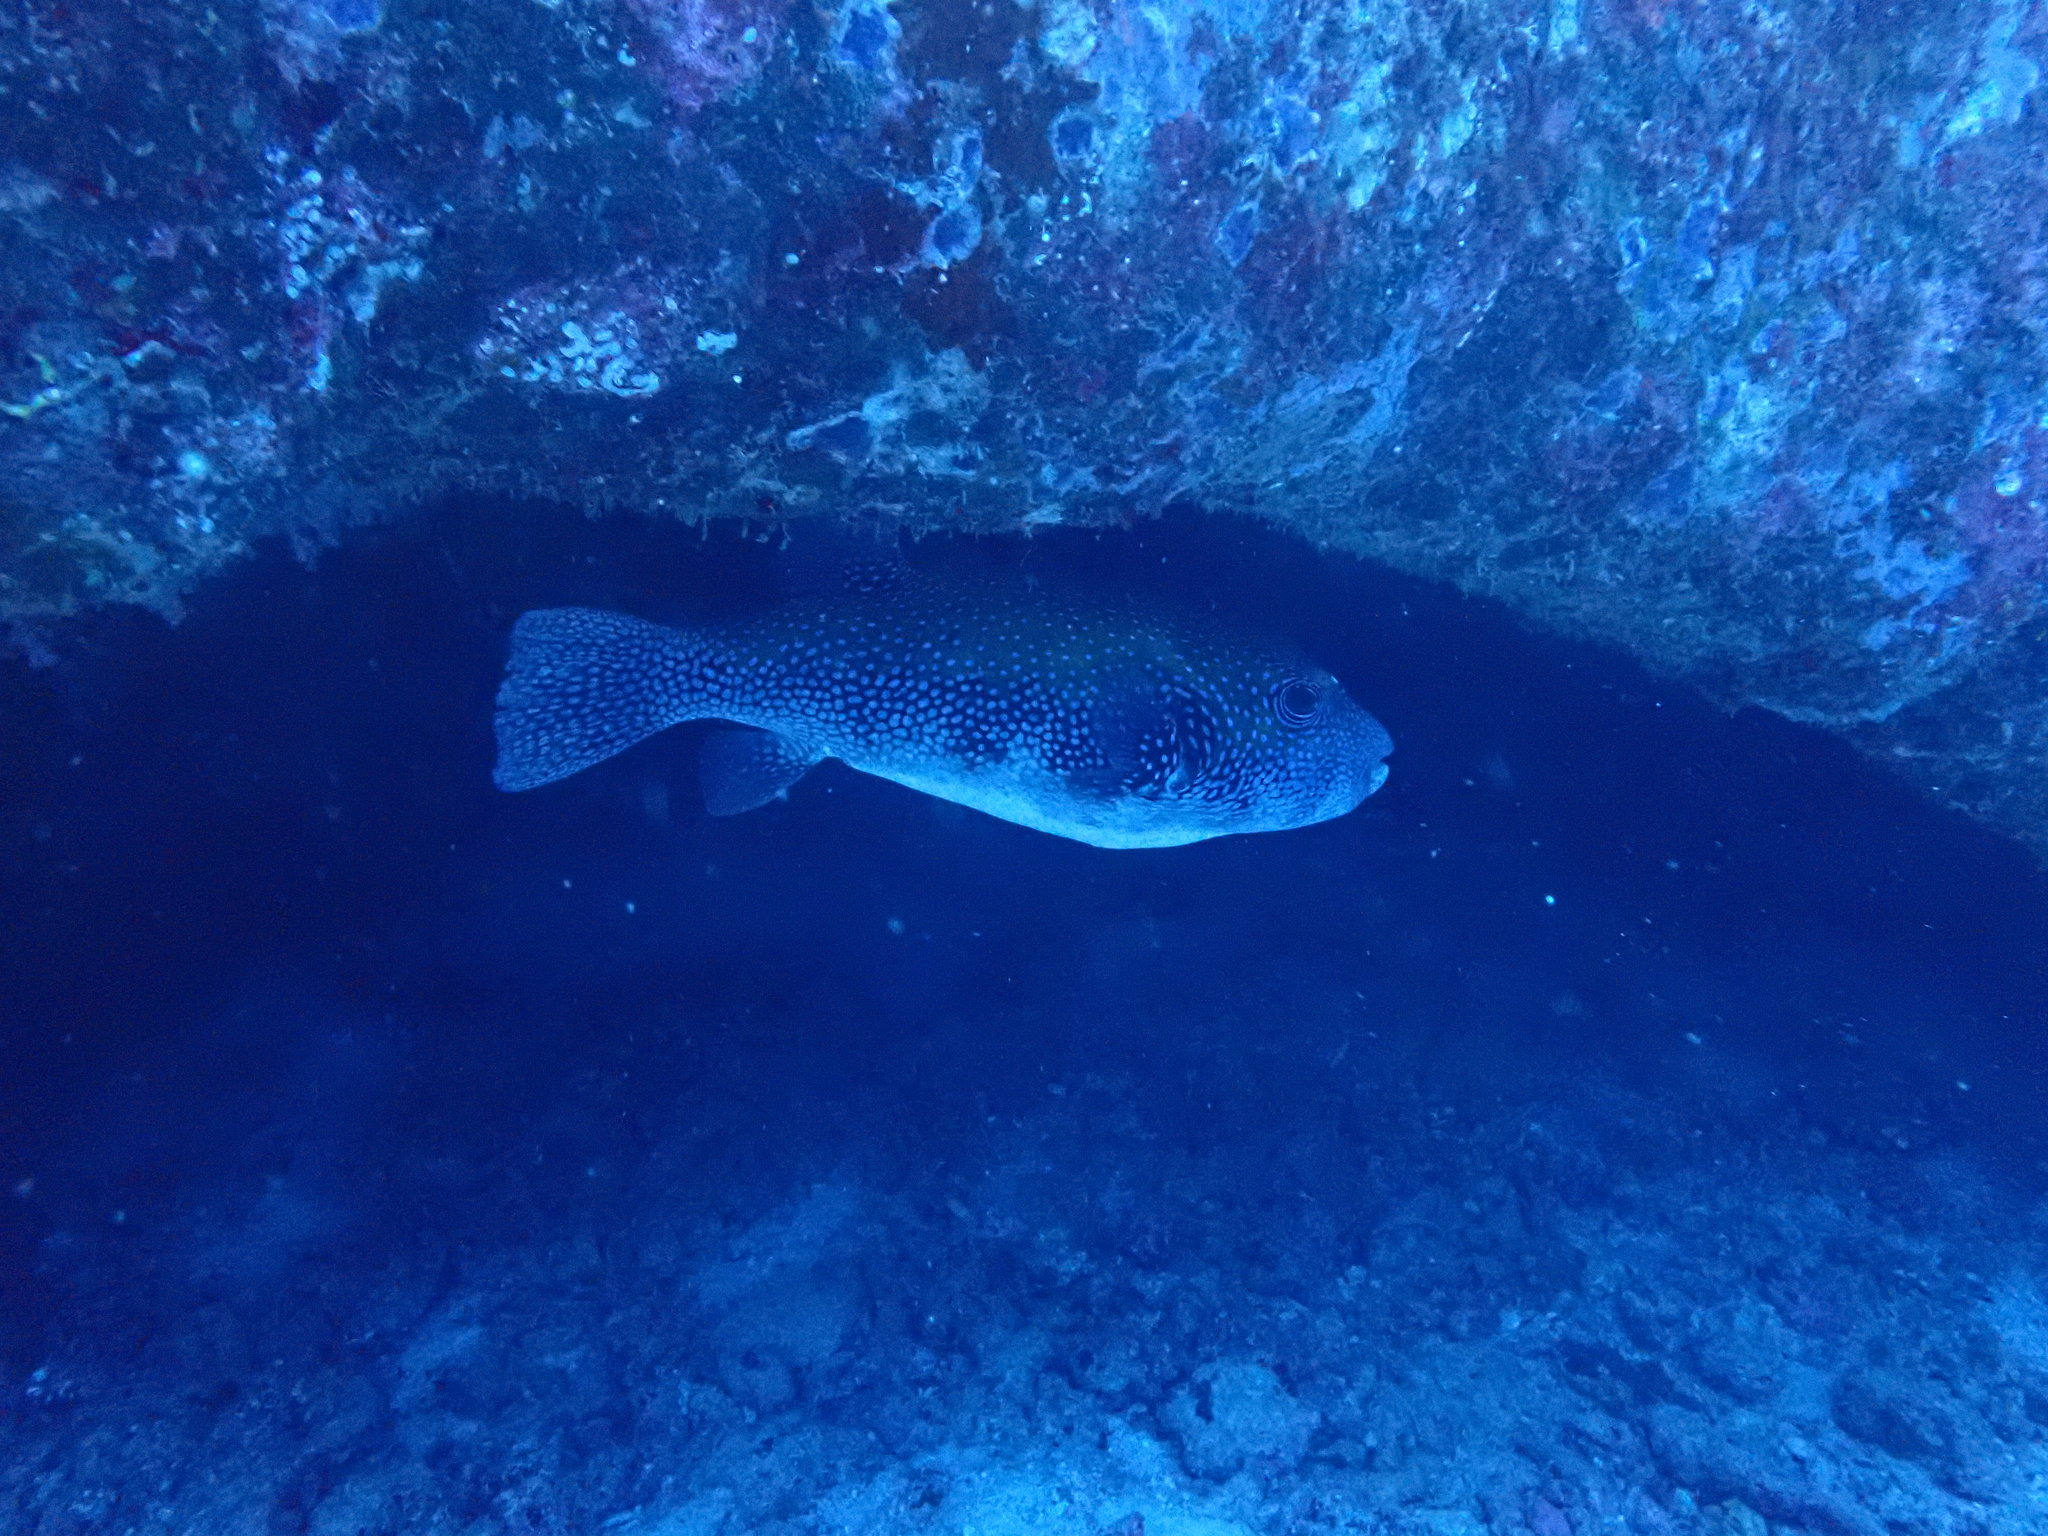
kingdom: Animalia
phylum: Chordata
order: Tetraodontiformes
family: Tetraodontidae
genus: Arothron
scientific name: Arothron caeruleopunctatus
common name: Blue-spotted puffer
